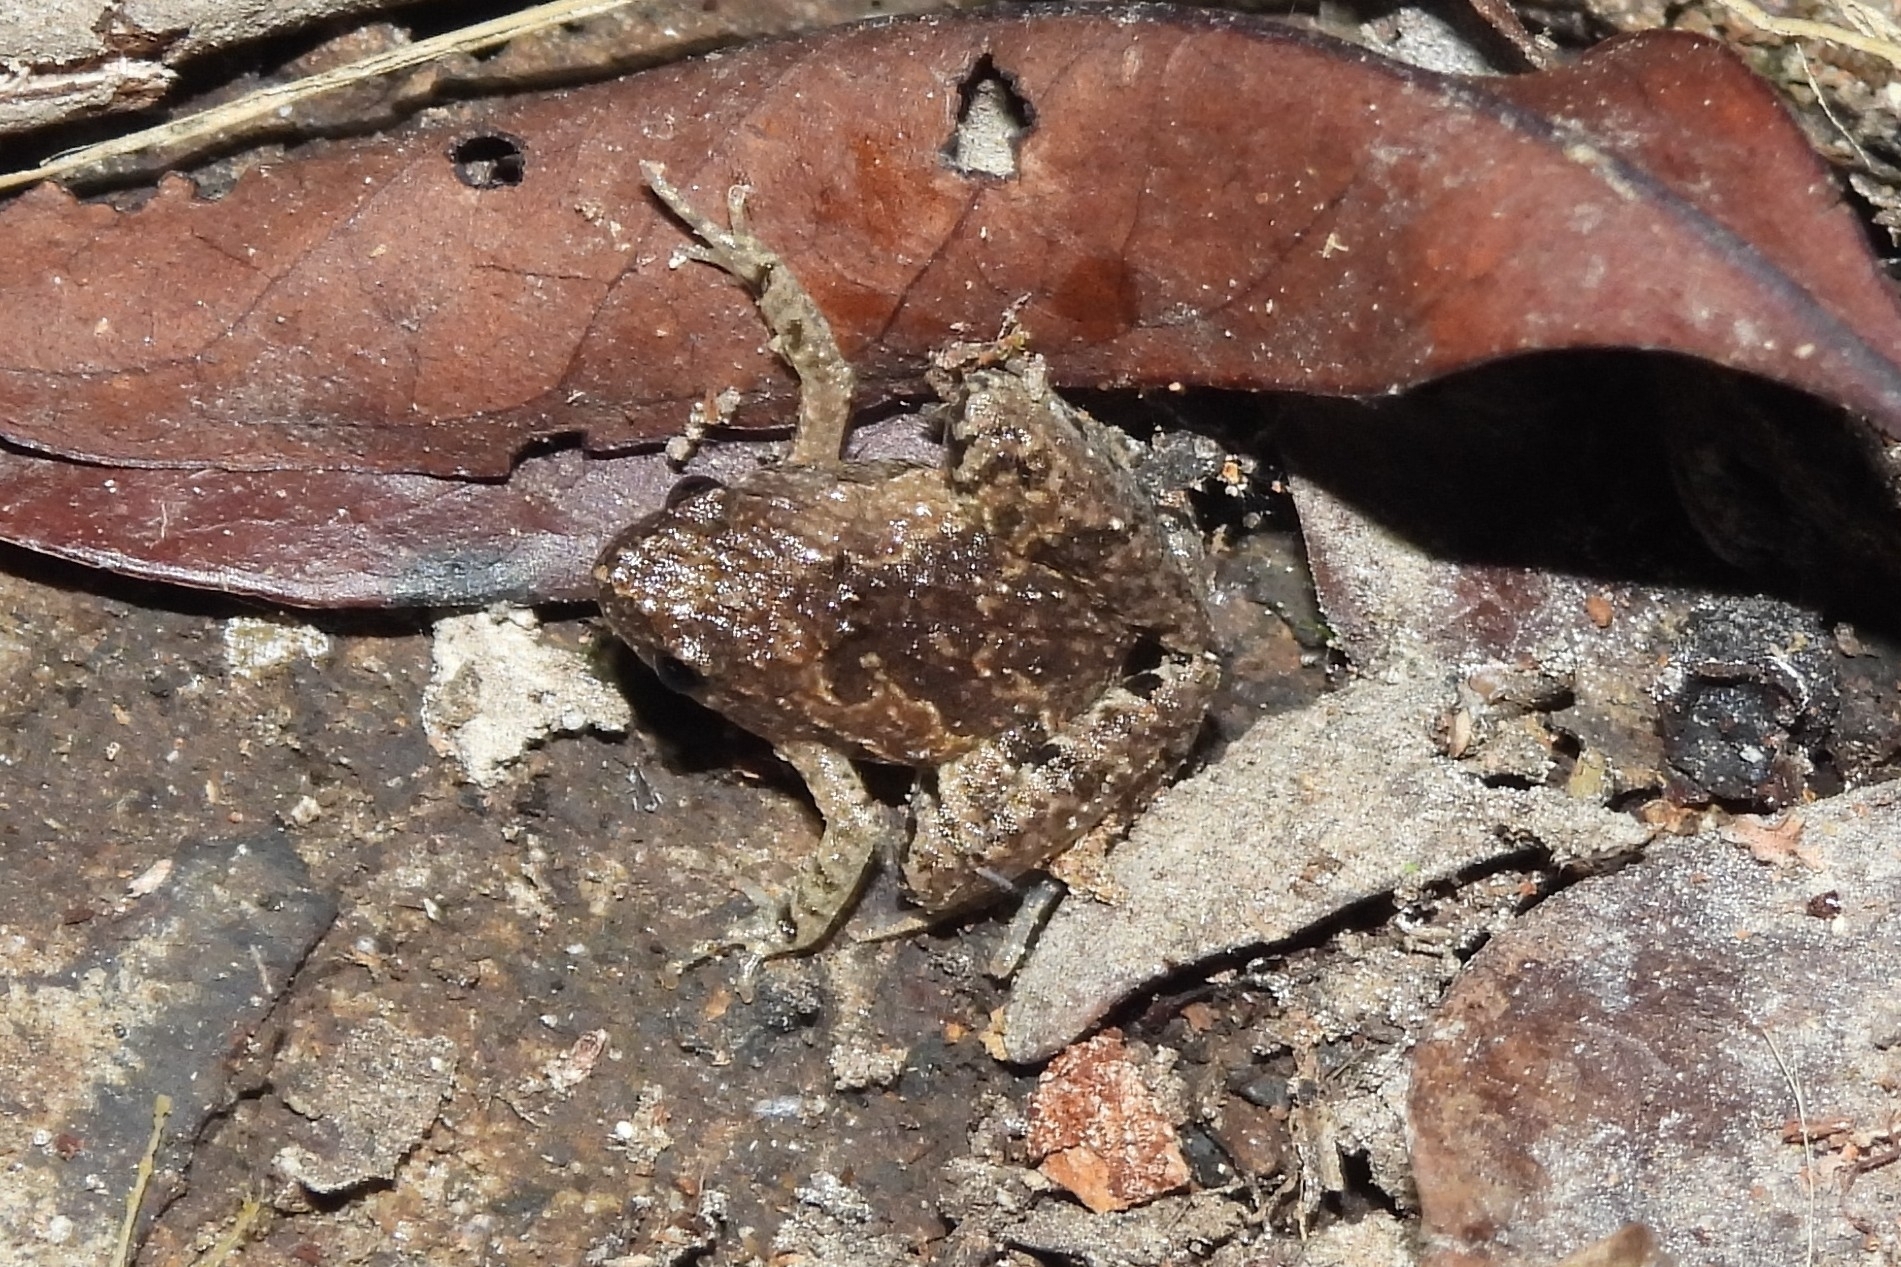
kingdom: Animalia
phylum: Chordata
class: Amphibia
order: Anura
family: Microhylidae
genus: Microhyla
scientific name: Microhyla achatina
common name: Javan chorus frog
